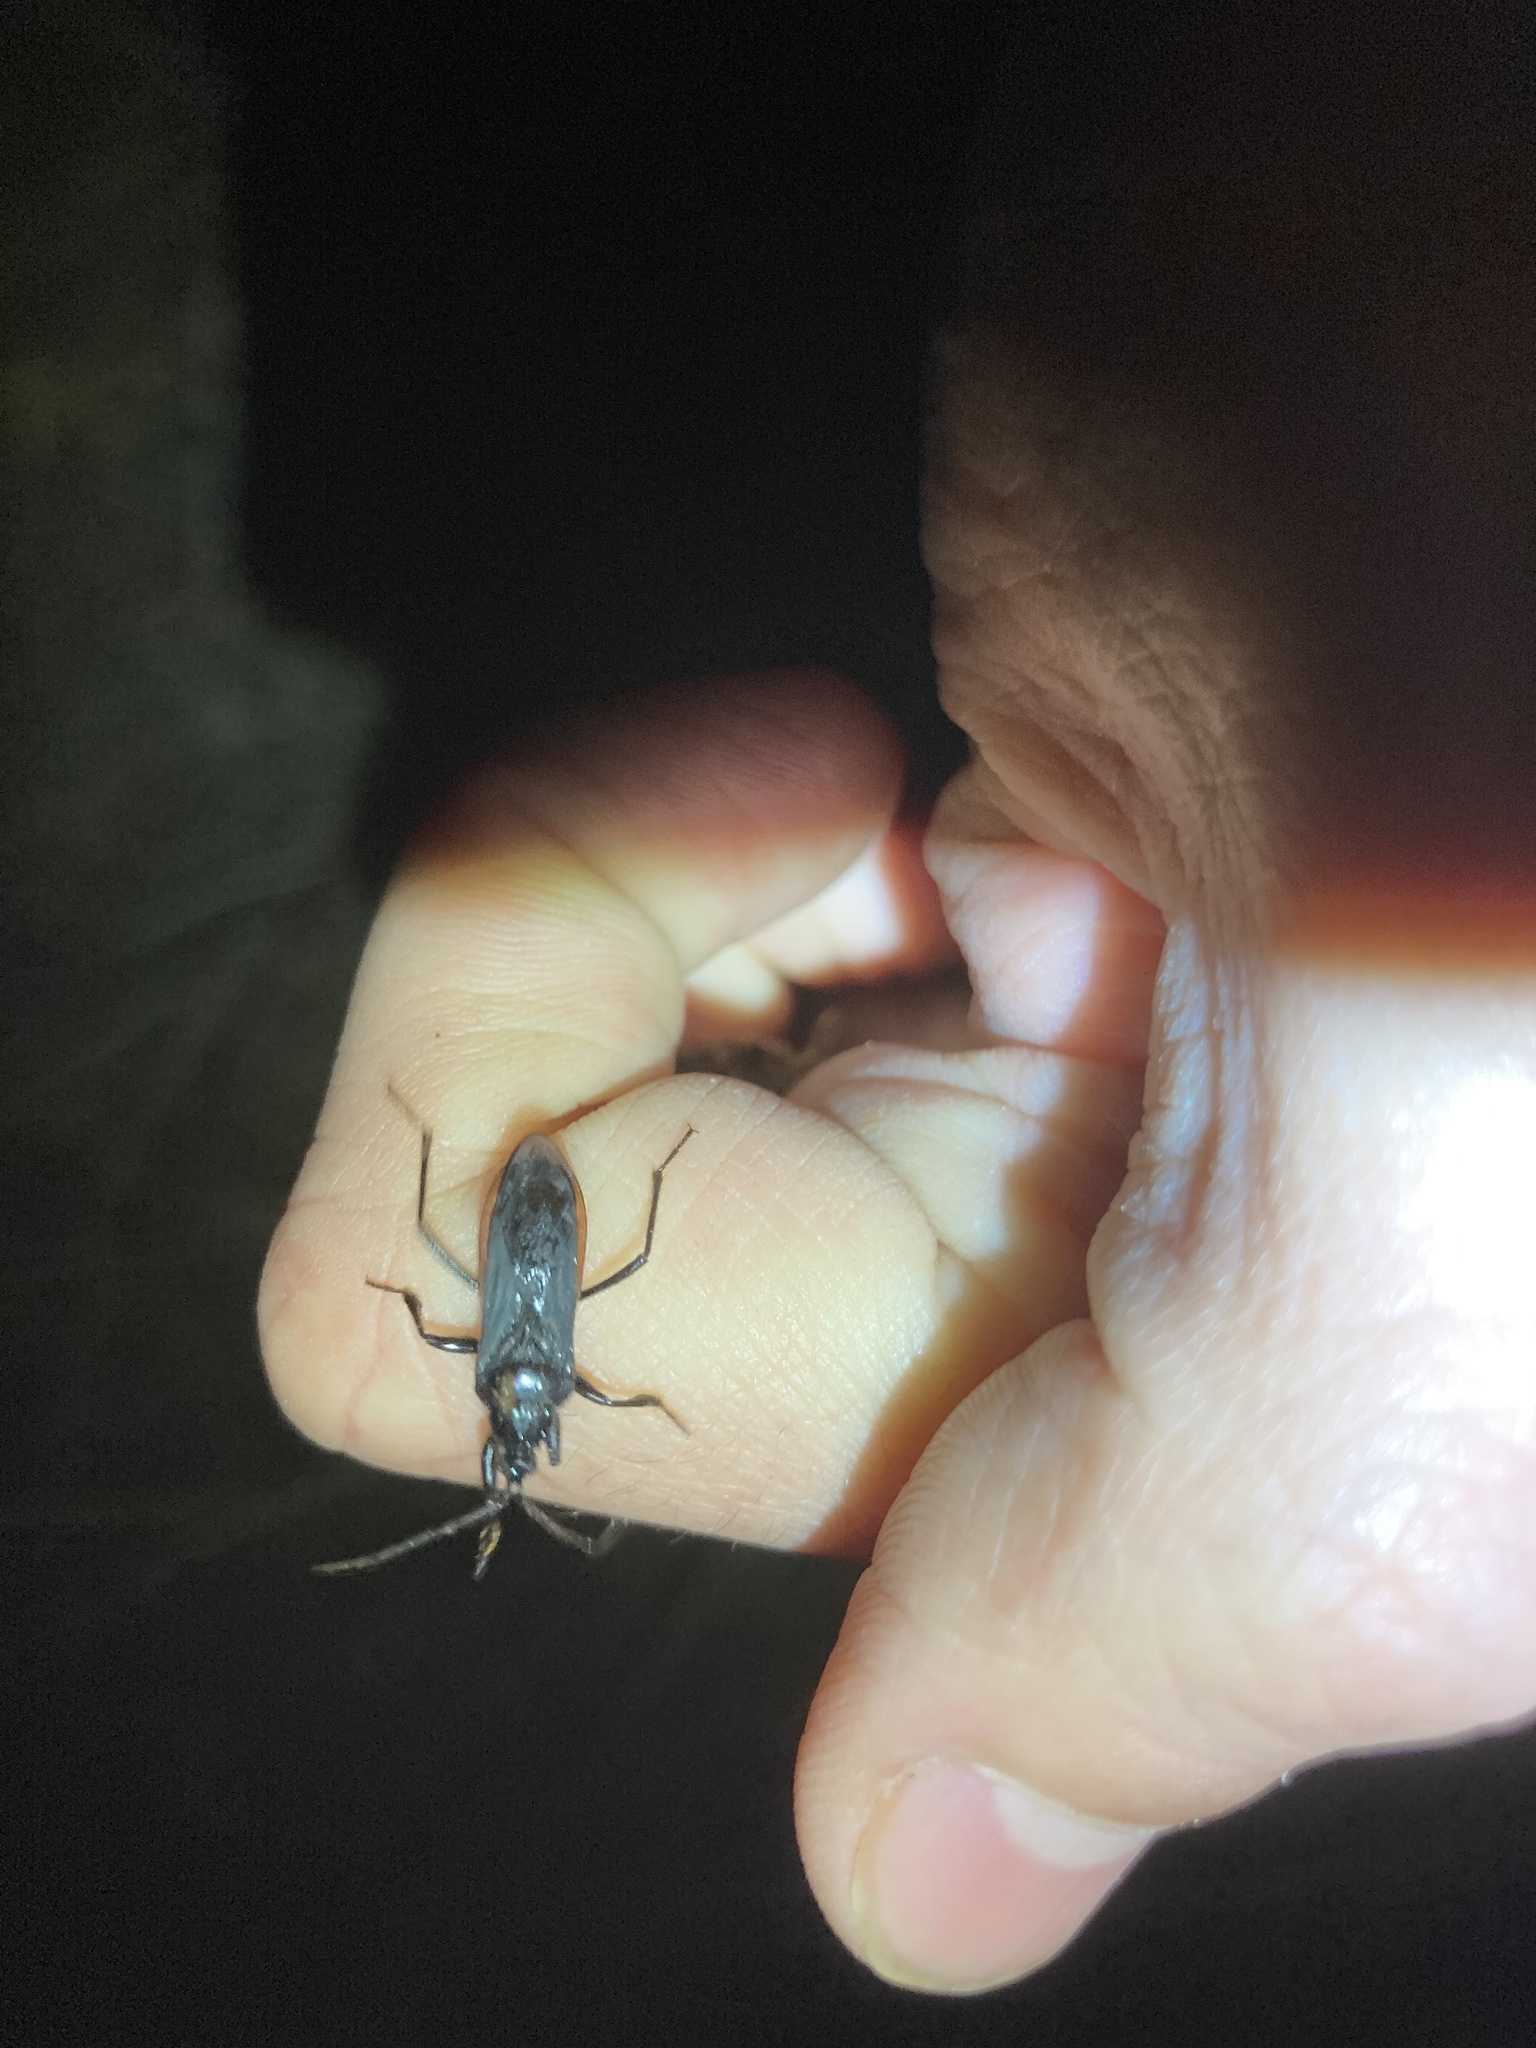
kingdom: Animalia
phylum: Arthropoda
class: Insecta
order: Hemiptera
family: Reduviidae
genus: Melanolestes
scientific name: Melanolestes picipes
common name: Assassin bug
